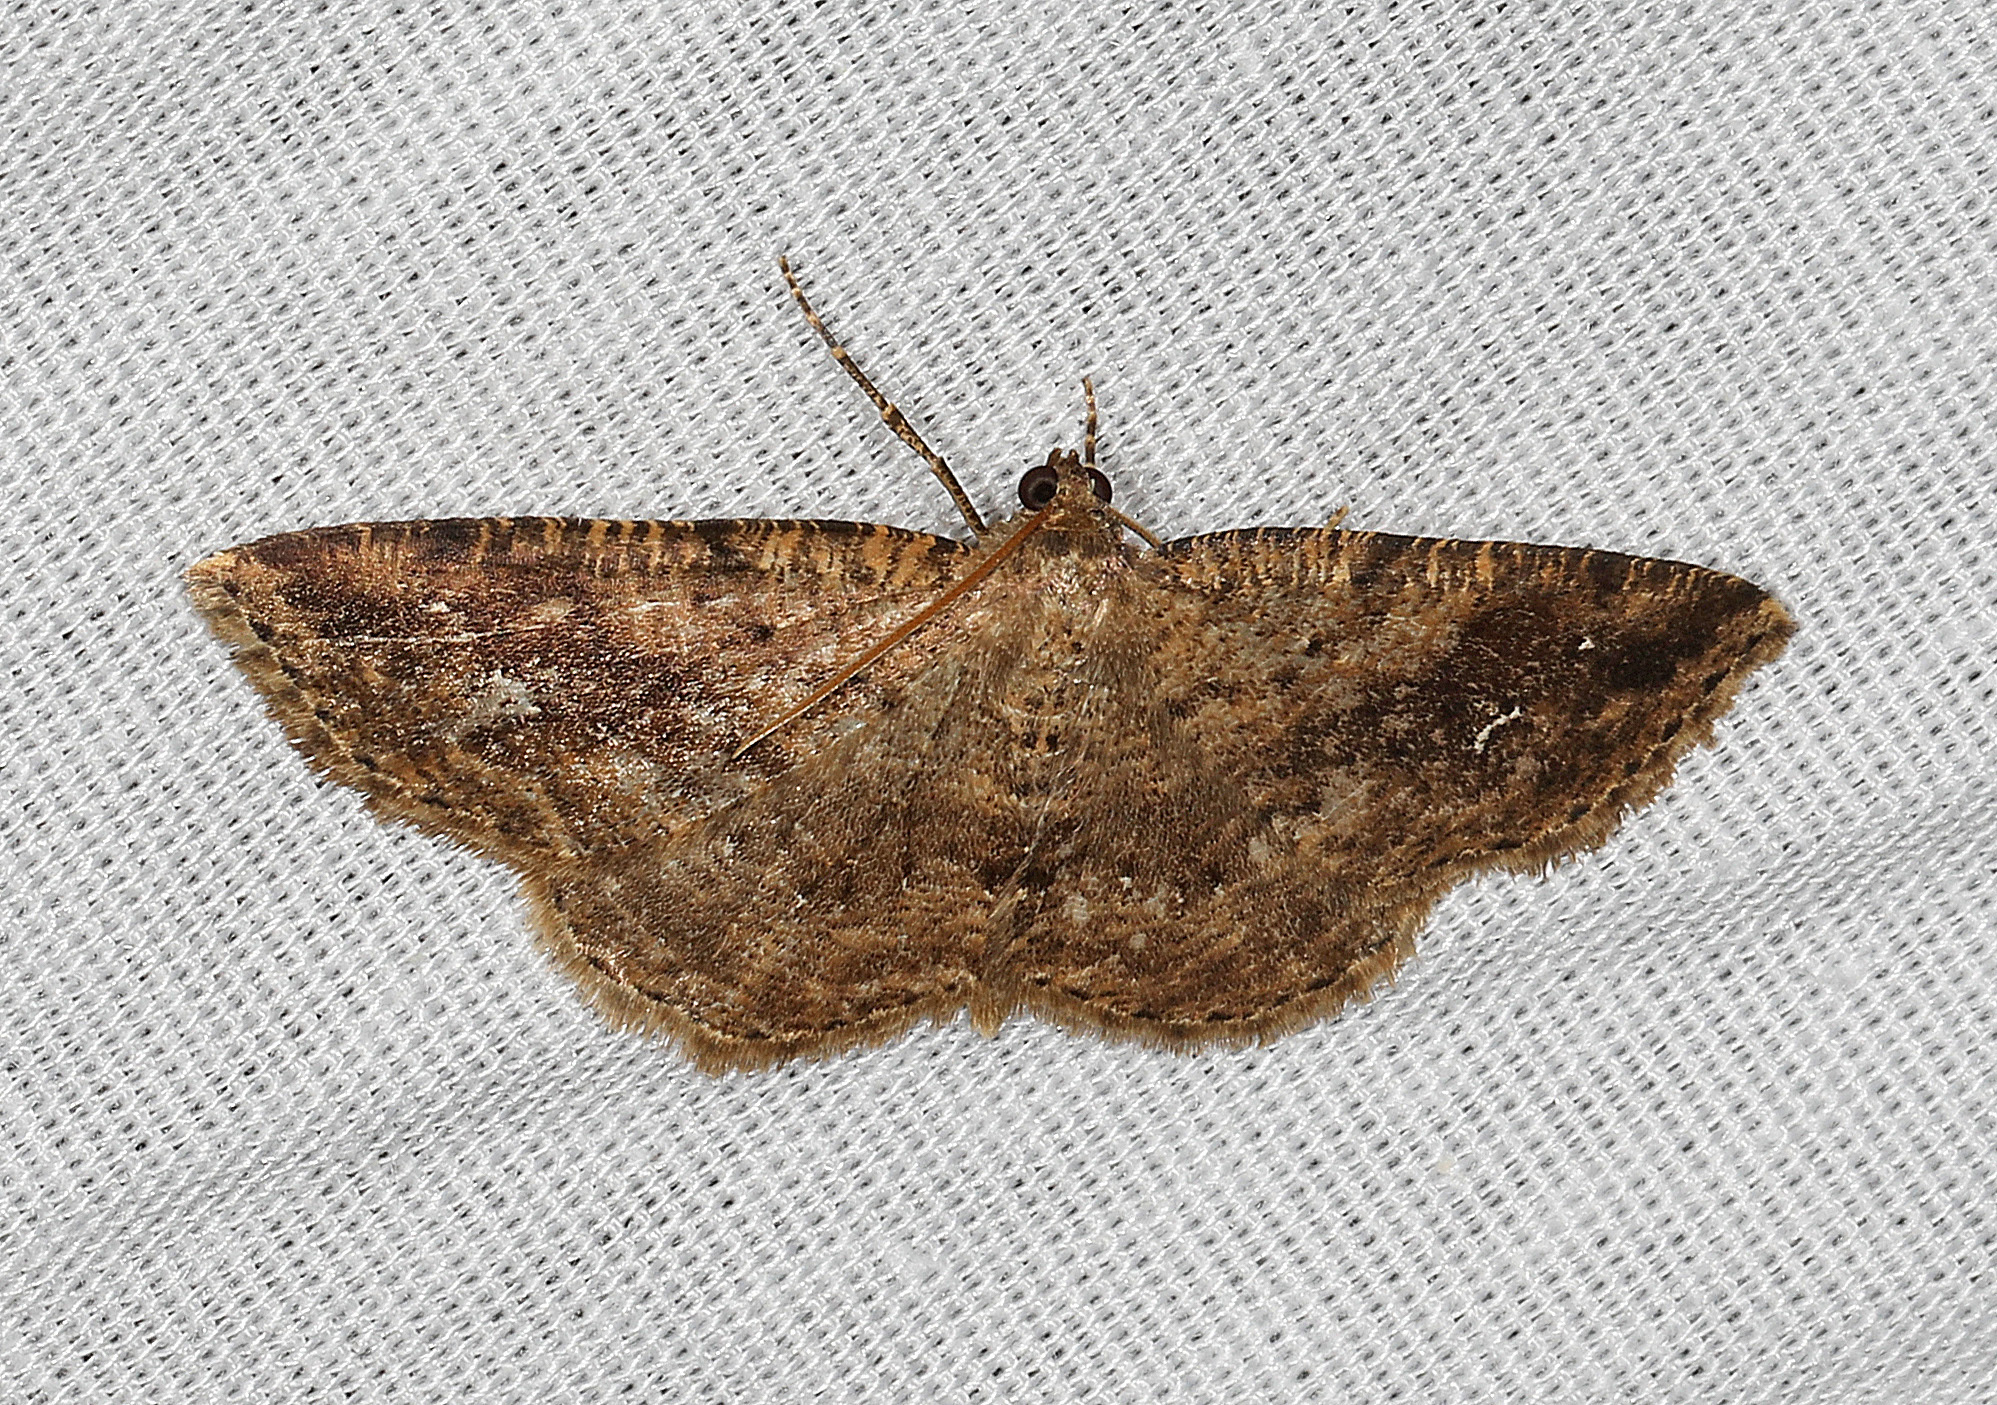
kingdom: Animalia
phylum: Arthropoda
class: Insecta
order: Lepidoptera
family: Geometridae
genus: Homochlodes
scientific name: Homochlodes fritillaria
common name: Pale homochlodes
